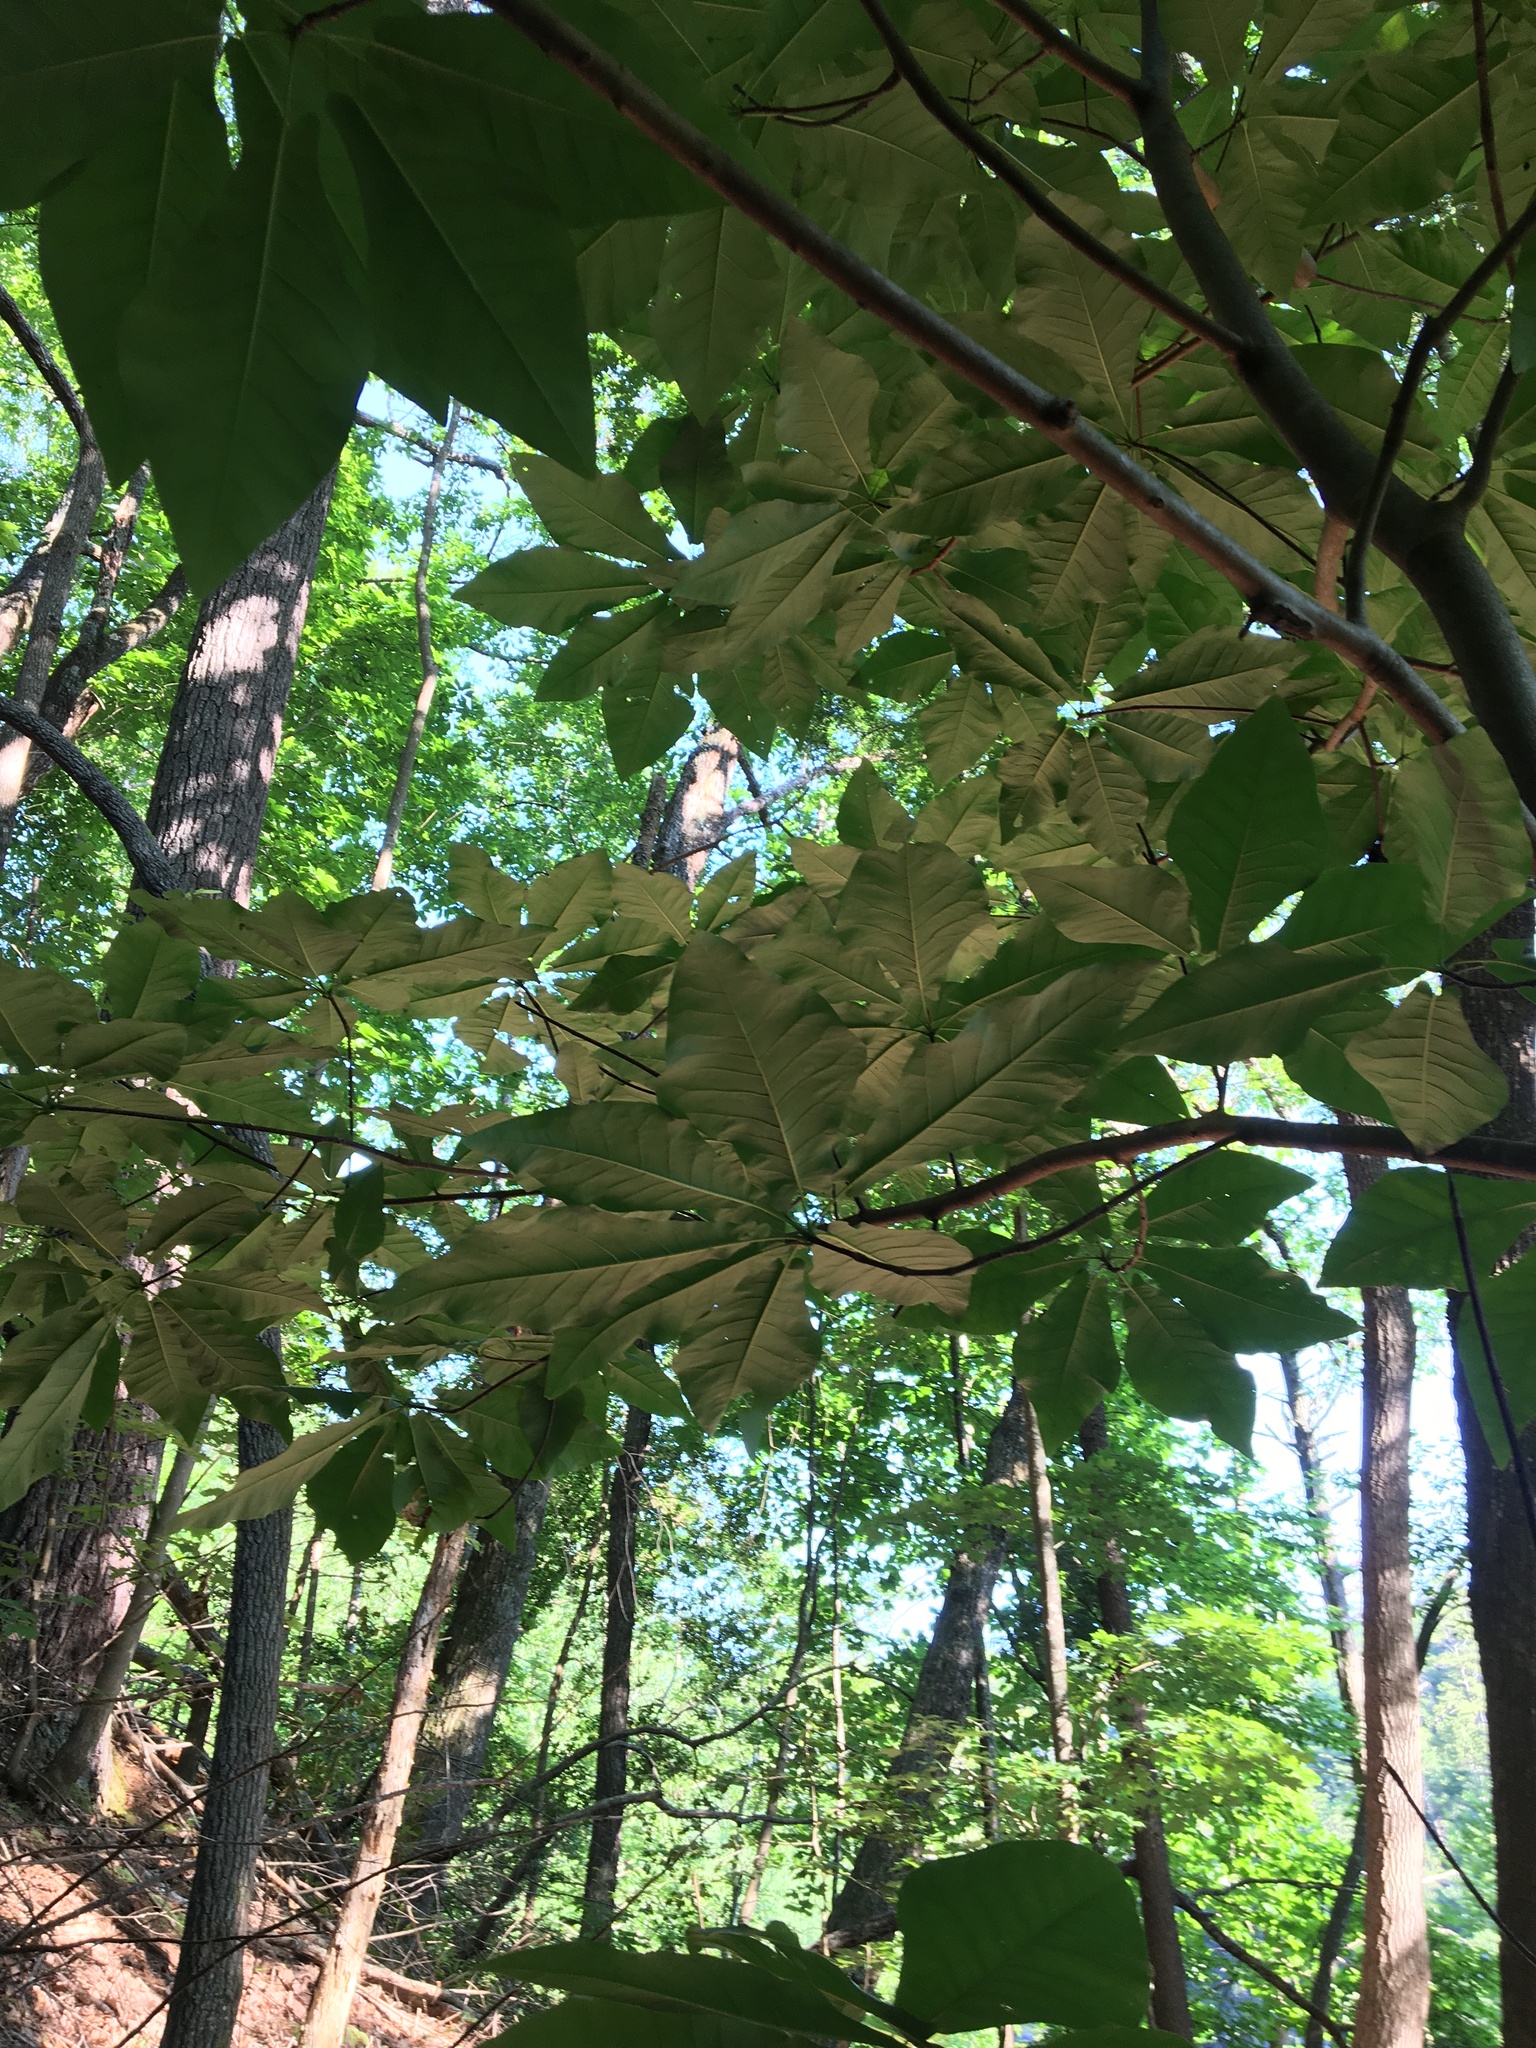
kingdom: Plantae
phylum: Tracheophyta
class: Magnoliopsida
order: Magnoliales
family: Magnoliaceae
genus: Magnolia
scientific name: Magnolia fraseri
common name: Fraser's magnolia
